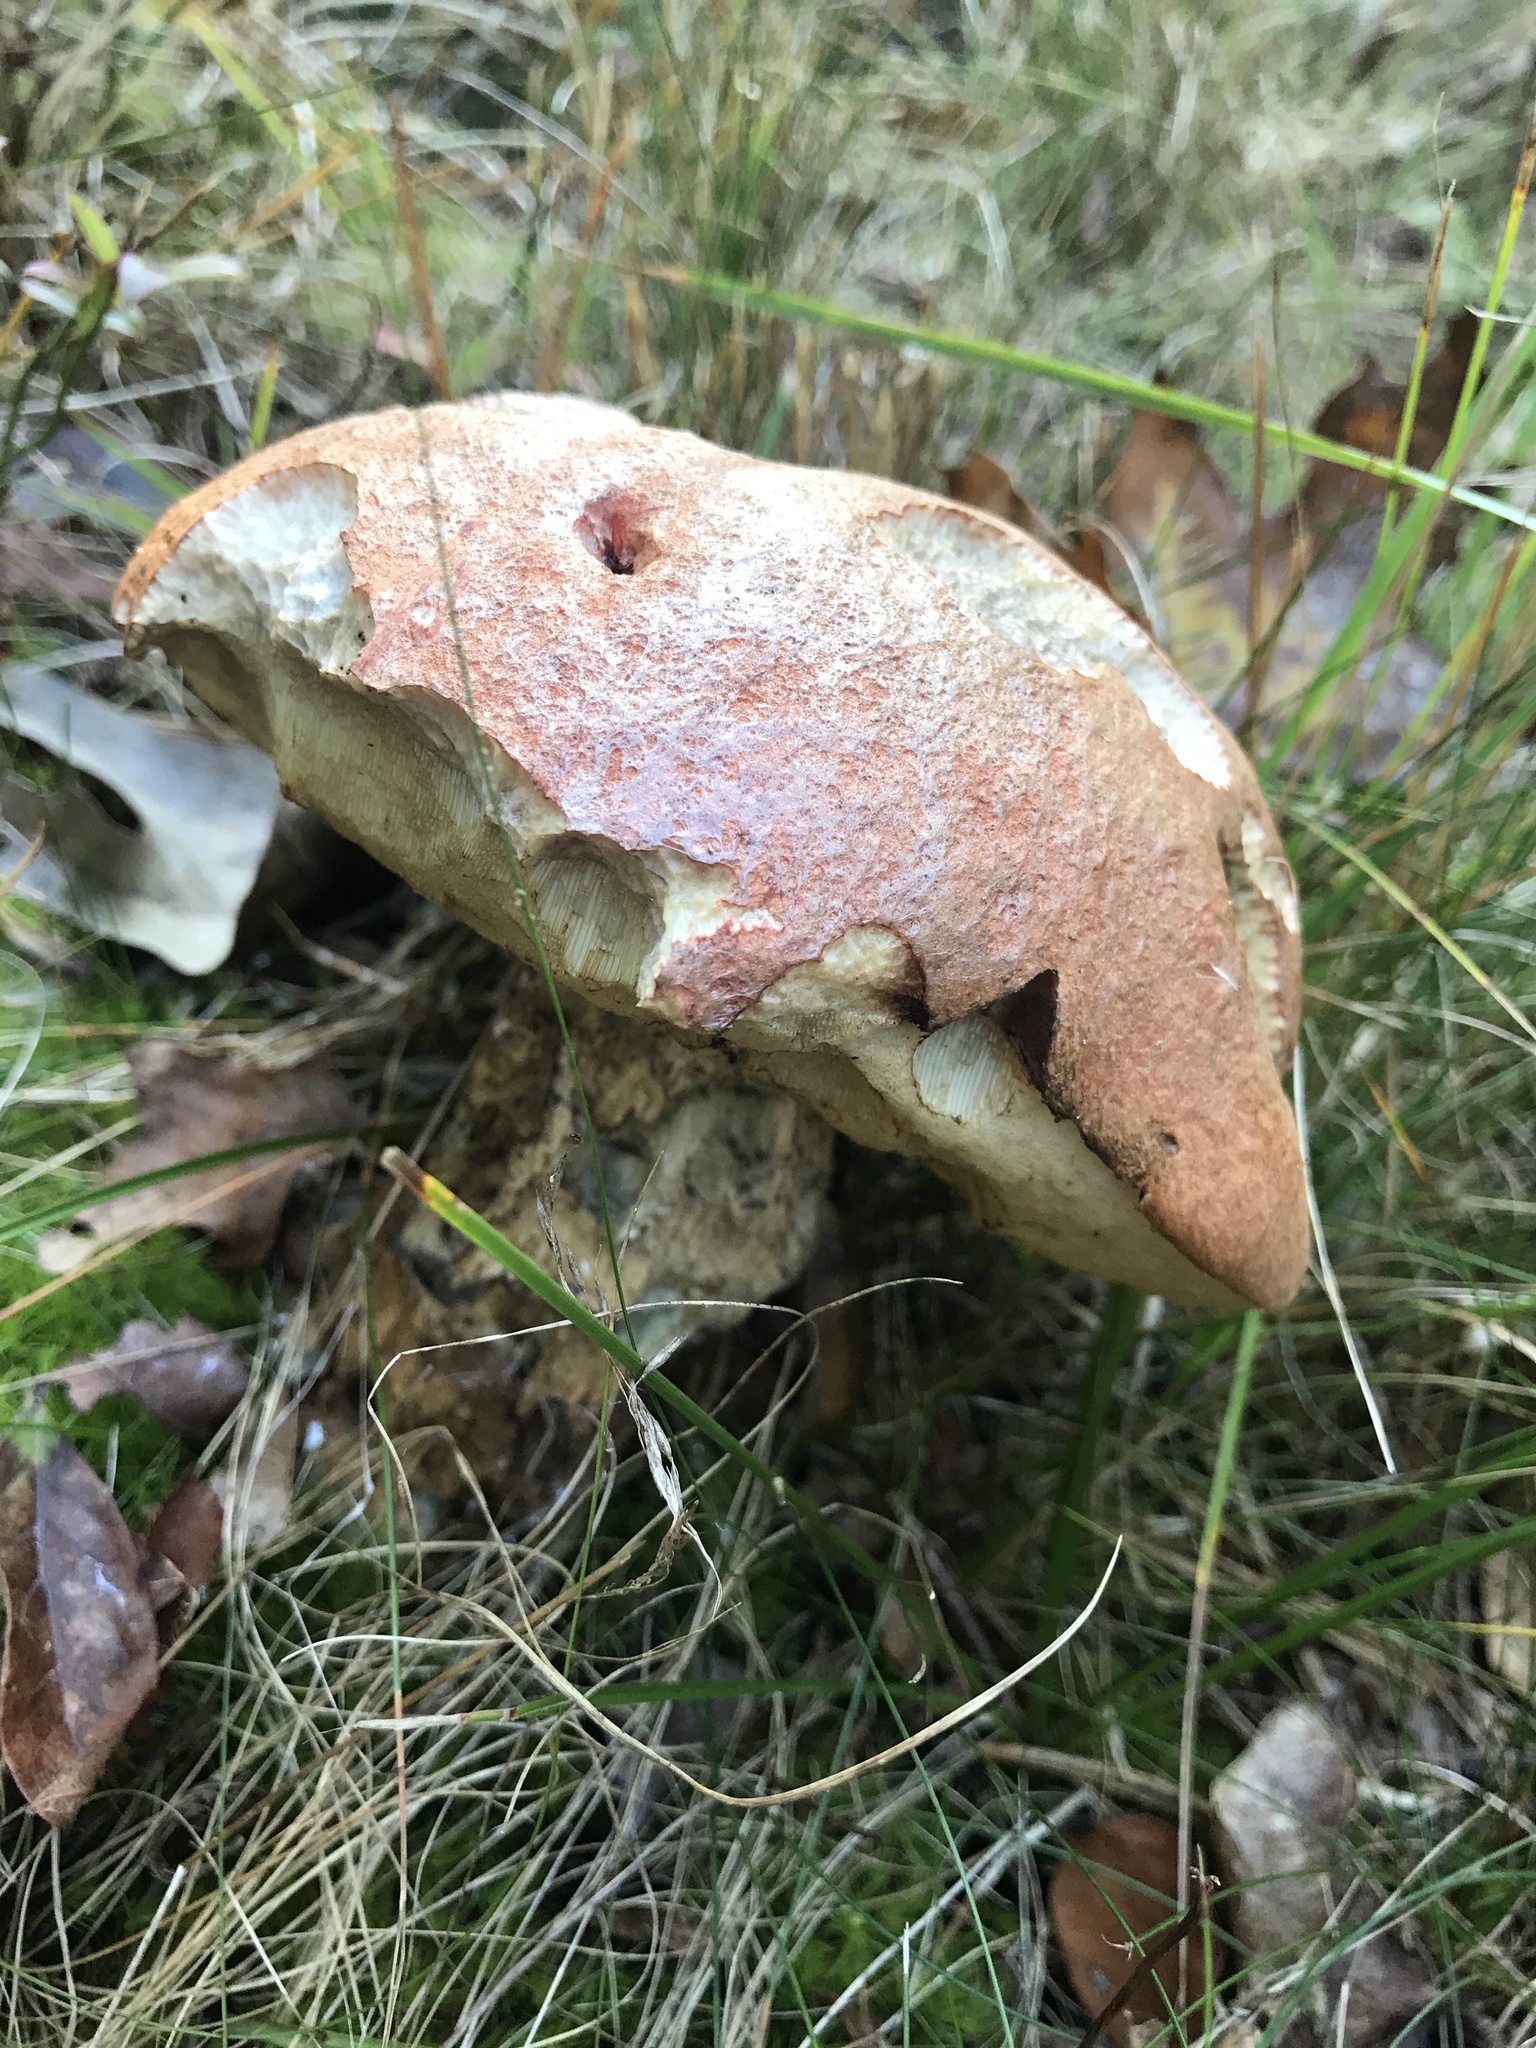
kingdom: Fungi
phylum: Basidiomycota
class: Agaricomycetes
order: Boletales
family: Boletaceae
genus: Leccinum
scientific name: Leccinum vulpinum
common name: Foxy bolete
